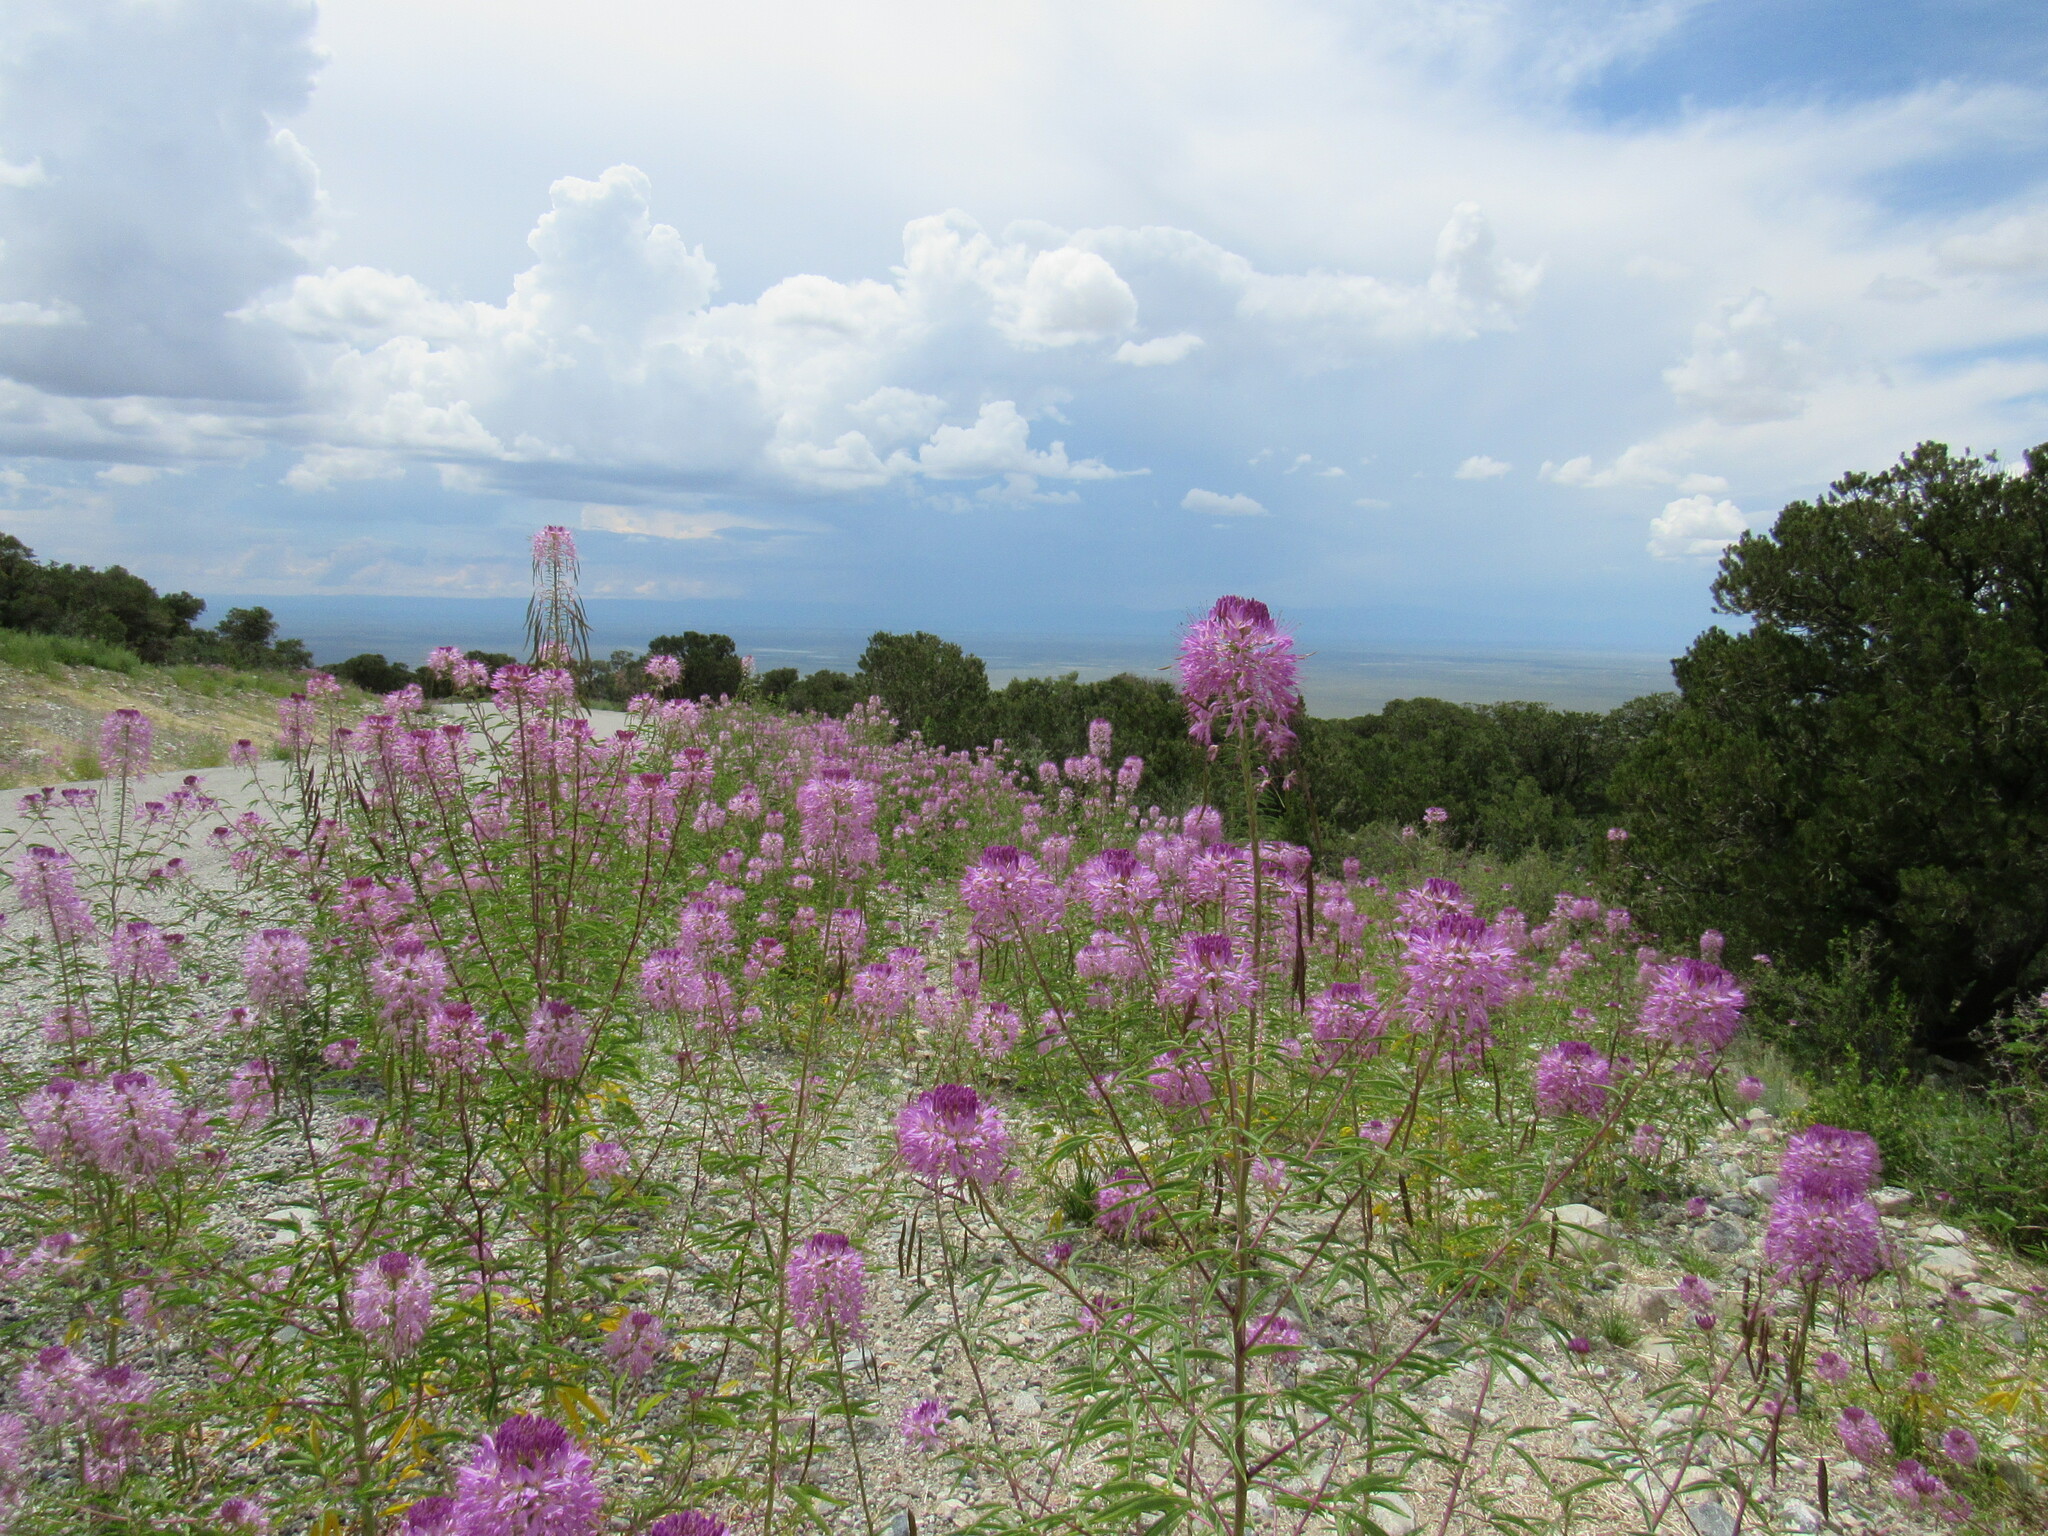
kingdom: Plantae
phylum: Tracheophyta
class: Magnoliopsida
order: Brassicales
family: Cleomaceae
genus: Cleomella
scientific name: Cleomella serrulata
